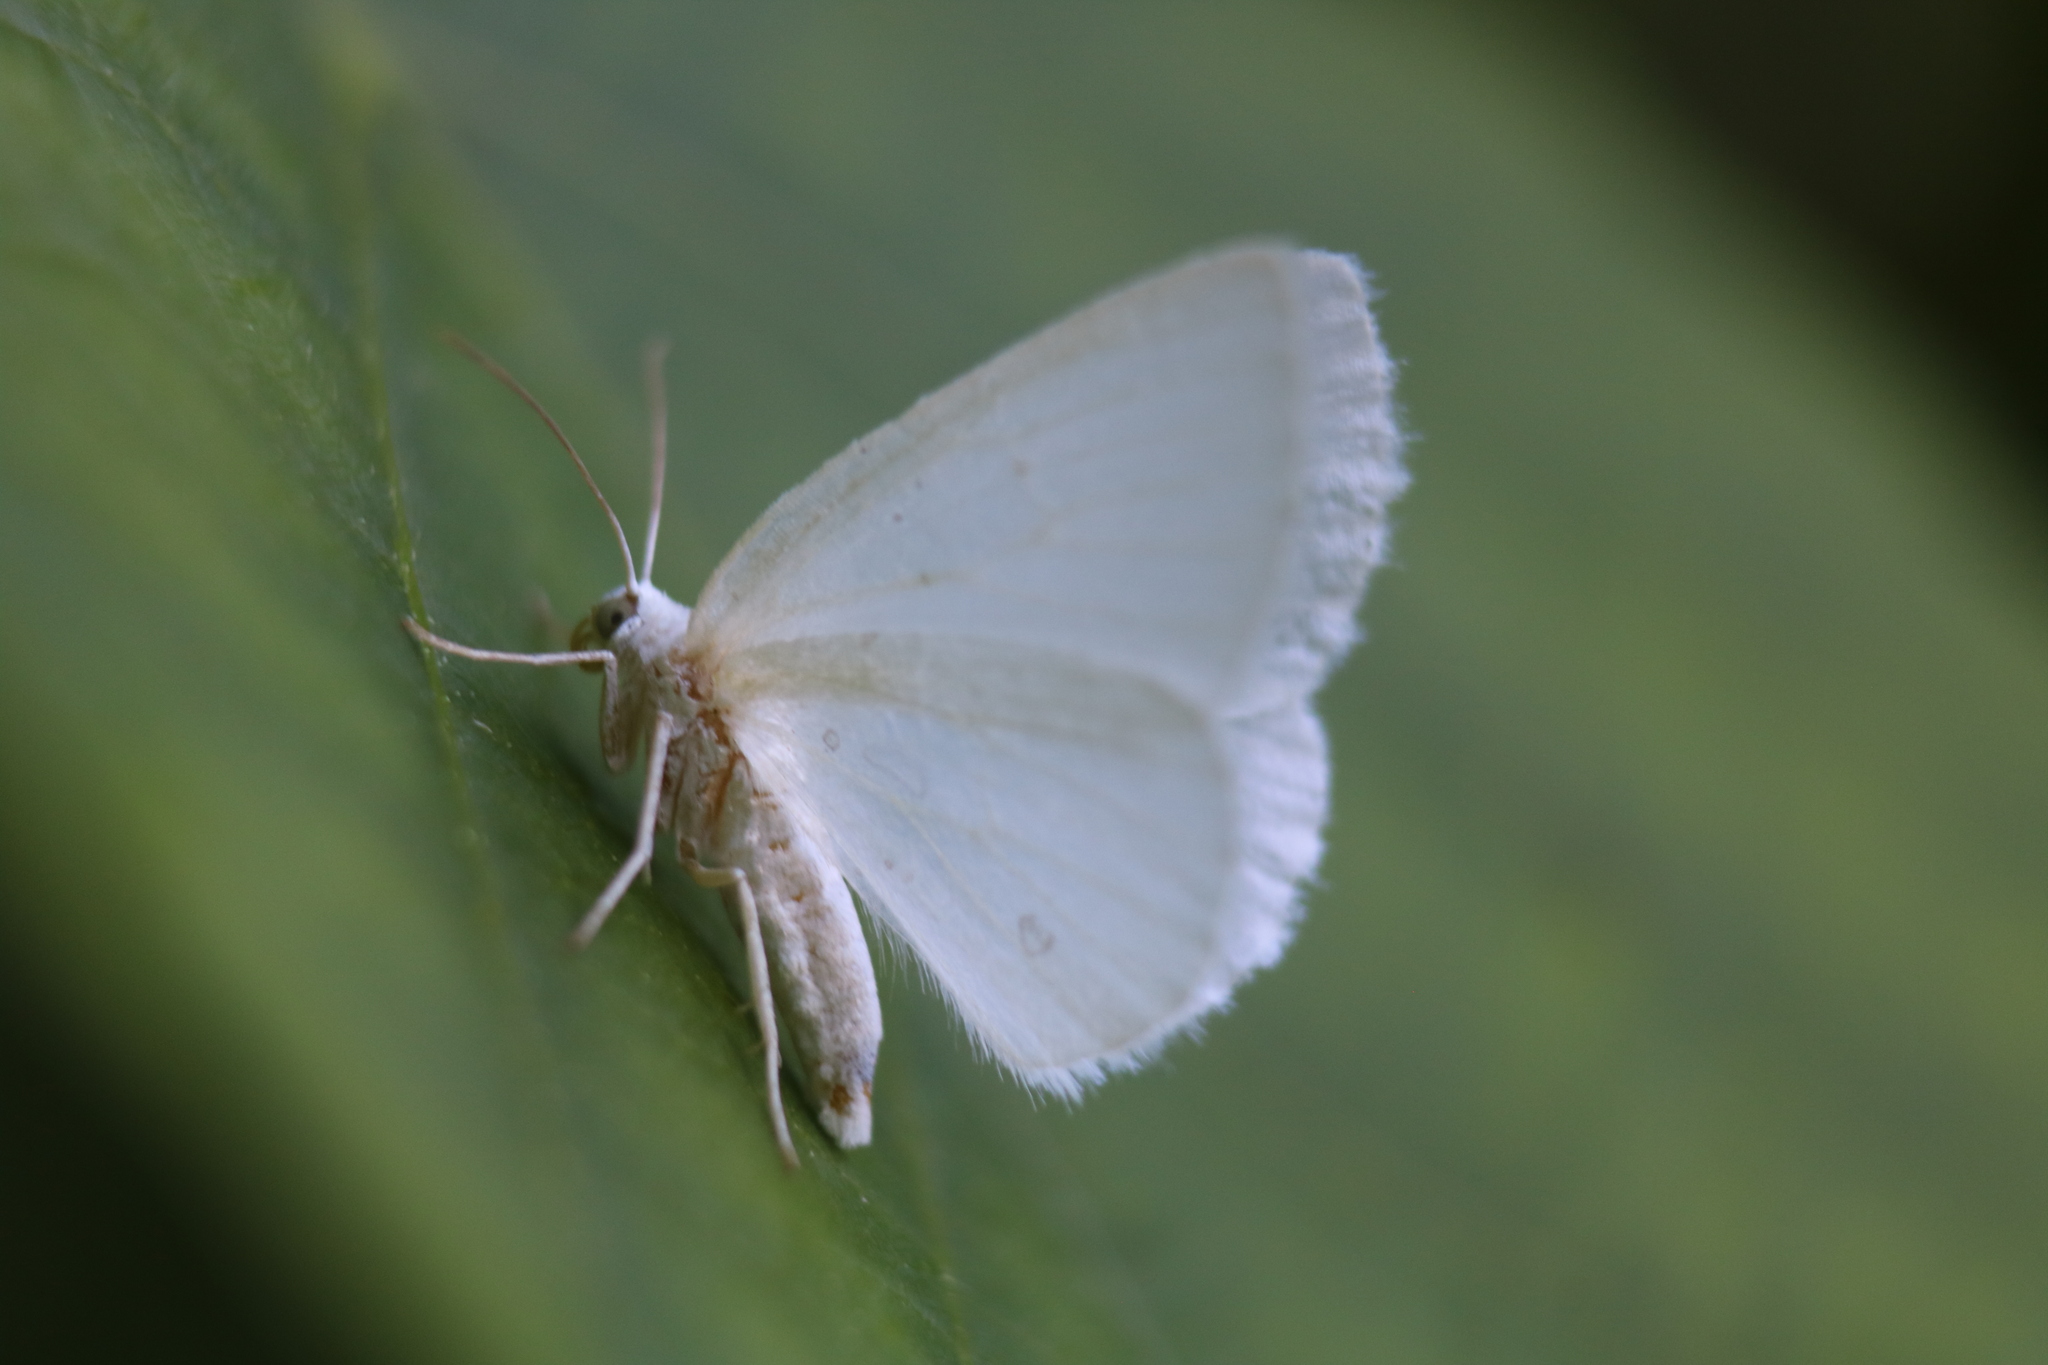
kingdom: Animalia
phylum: Arthropoda
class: Insecta
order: Lepidoptera
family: Geometridae
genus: Lomographa
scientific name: Lomographa vestaliata
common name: White spring moth
